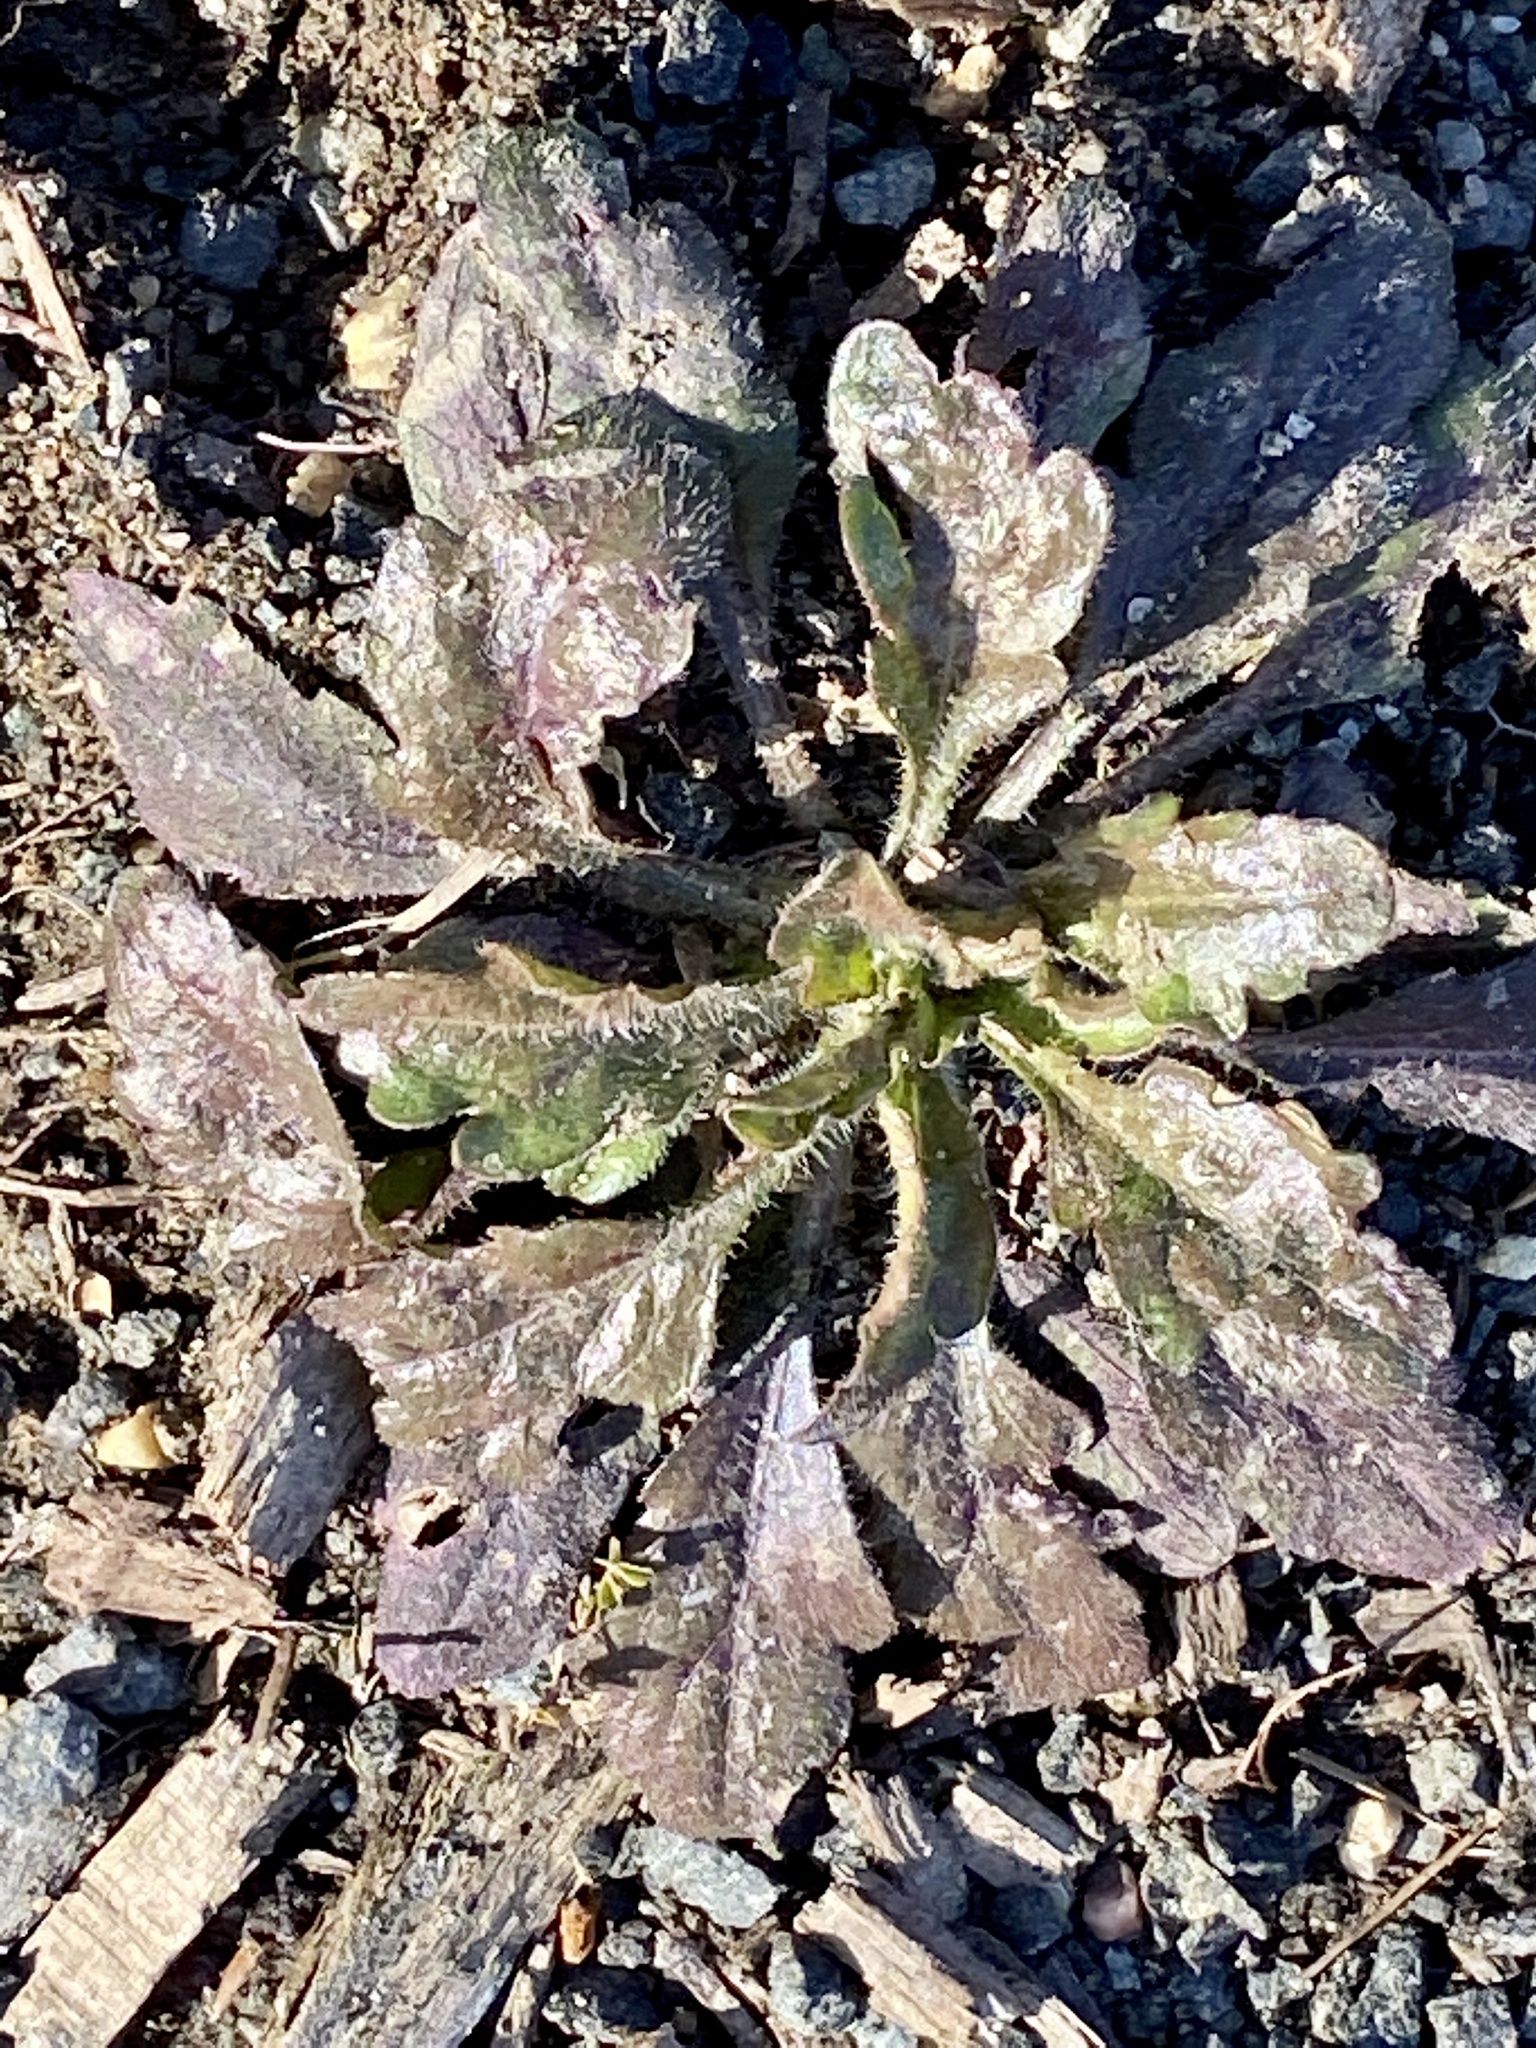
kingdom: Plantae
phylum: Tracheophyta
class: Magnoliopsida
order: Asterales
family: Asteraceae
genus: Erigeron
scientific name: Erigeron canadensis
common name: Canadian fleabane
